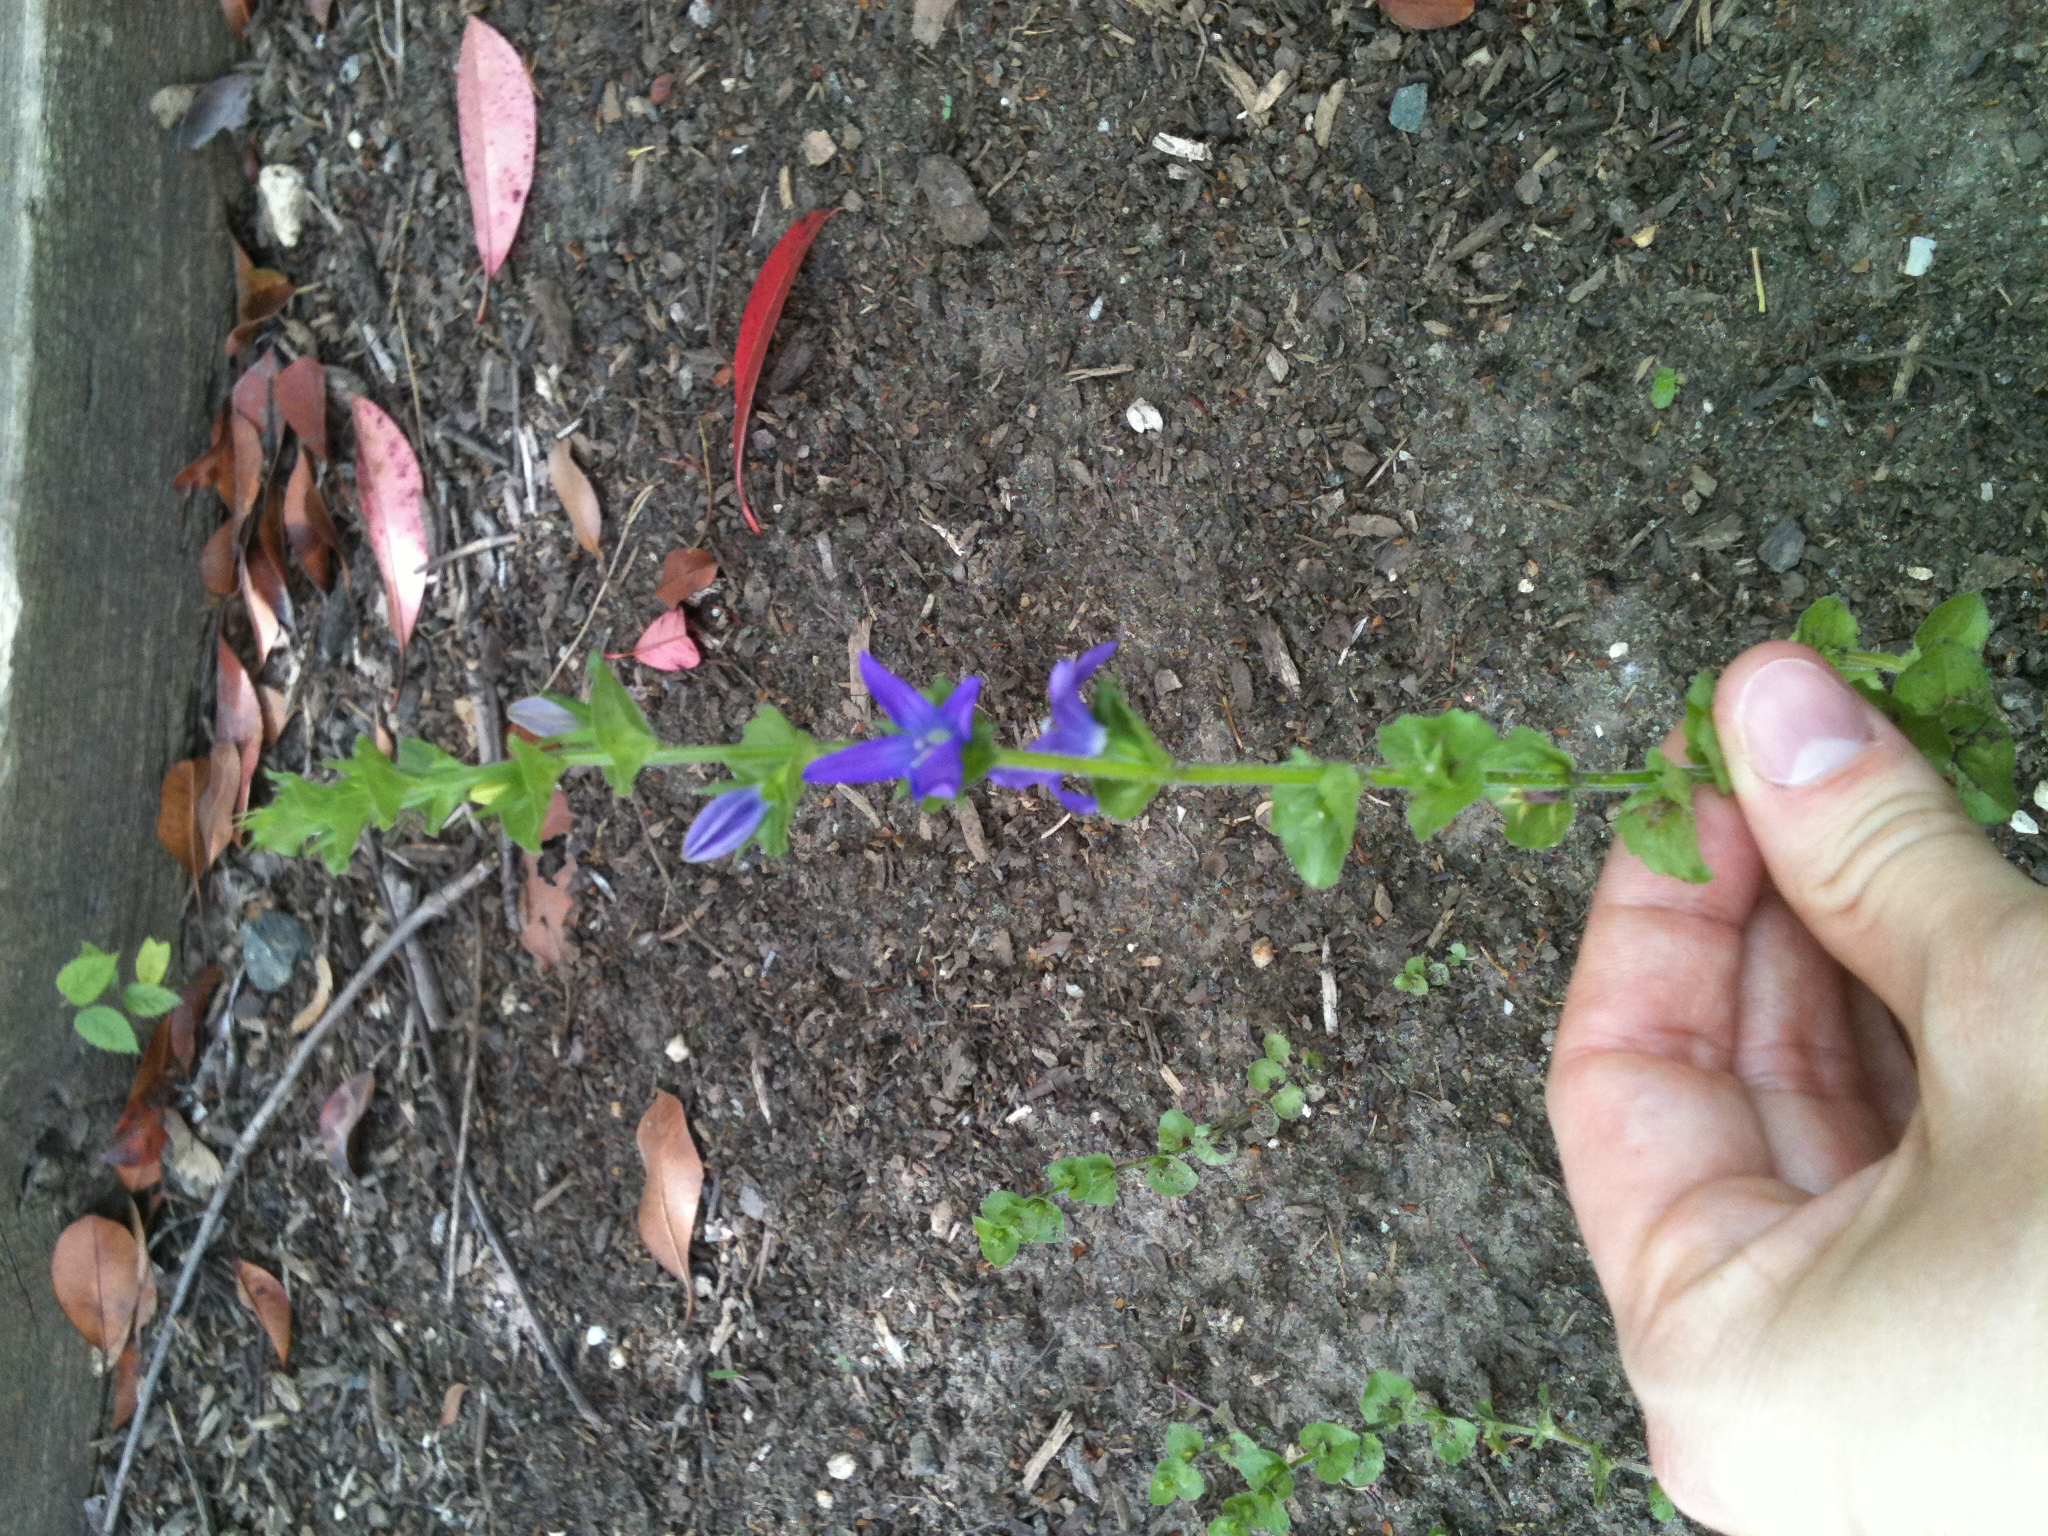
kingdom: Plantae
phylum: Tracheophyta
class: Magnoliopsida
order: Asterales
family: Campanulaceae
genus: Triodanis
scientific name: Triodanis perfoliata
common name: Clasping venus' looking-glass
